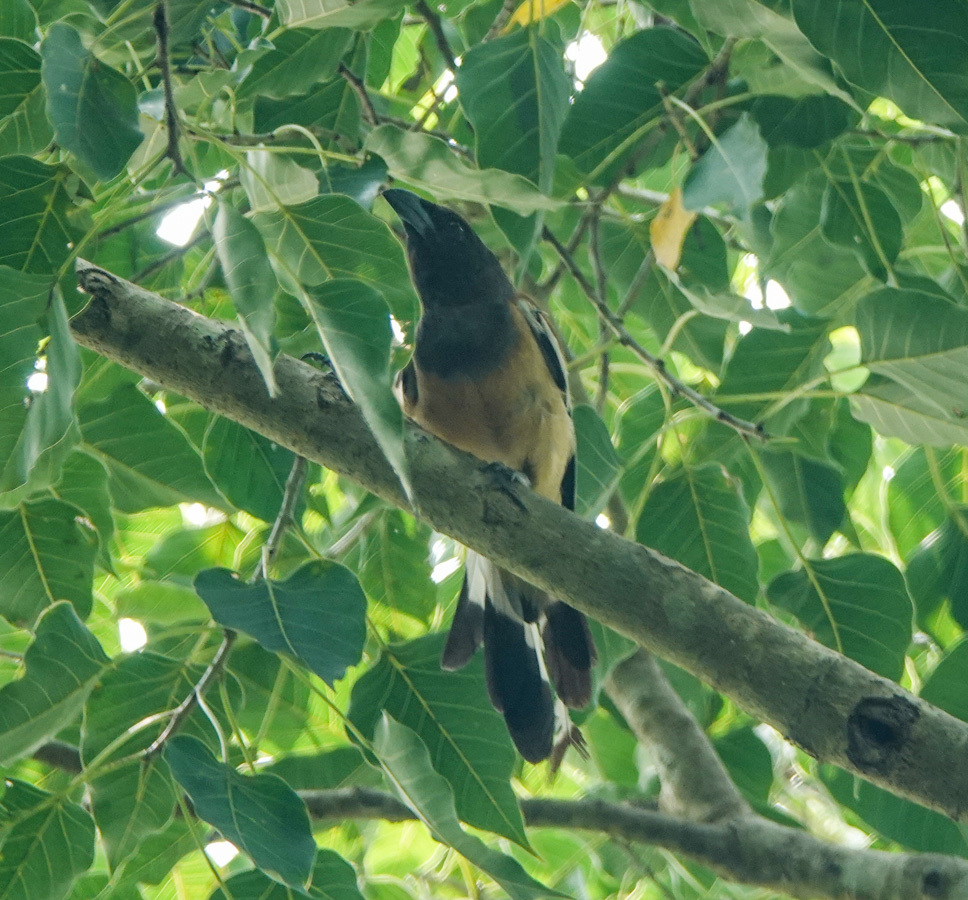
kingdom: Animalia
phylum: Chordata
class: Aves
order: Passeriformes
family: Corvidae
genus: Dendrocitta
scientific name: Dendrocitta vagabunda
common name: Rufous treepie
